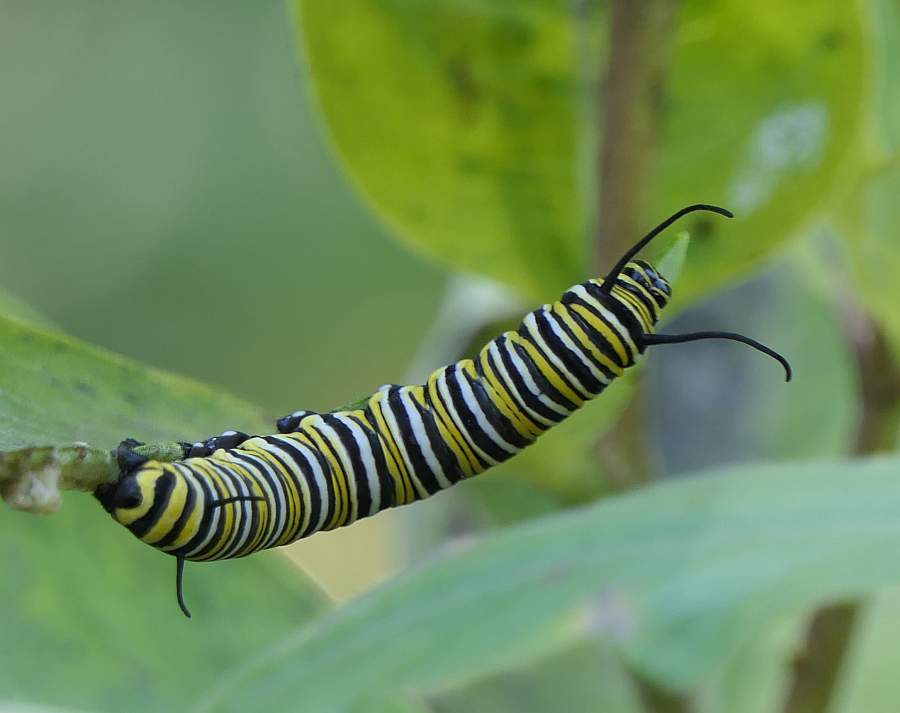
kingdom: Animalia
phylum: Arthropoda
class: Insecta
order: Lepidoptera
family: Nymphalidae
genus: Danaus
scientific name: Danaus plexippus
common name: Monarch
